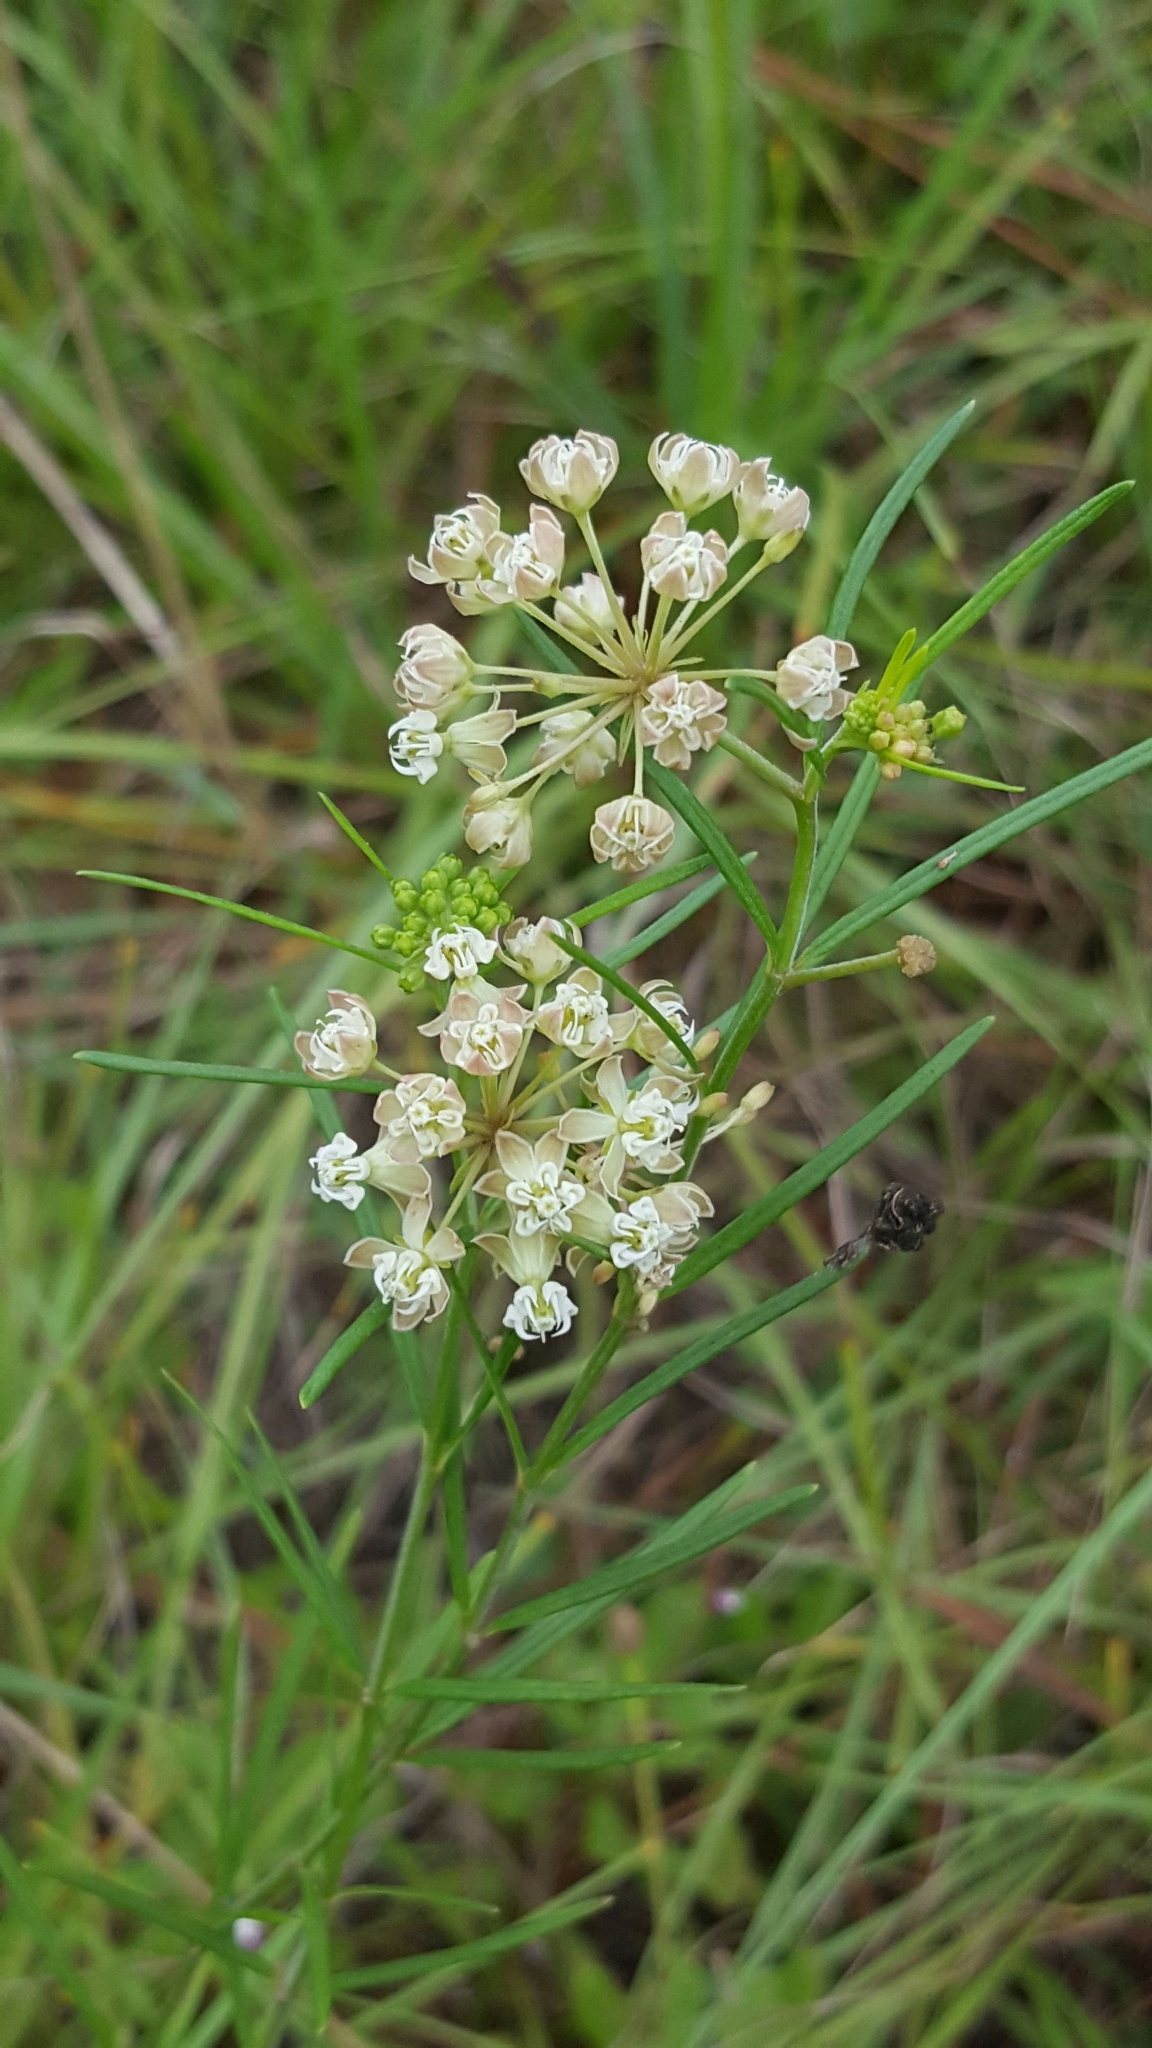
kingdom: Plantae
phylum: Tracheophyta
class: Magnoliopsida
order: Gentianales
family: Apocynaceae
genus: Asclepias
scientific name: Asclepias linearis
